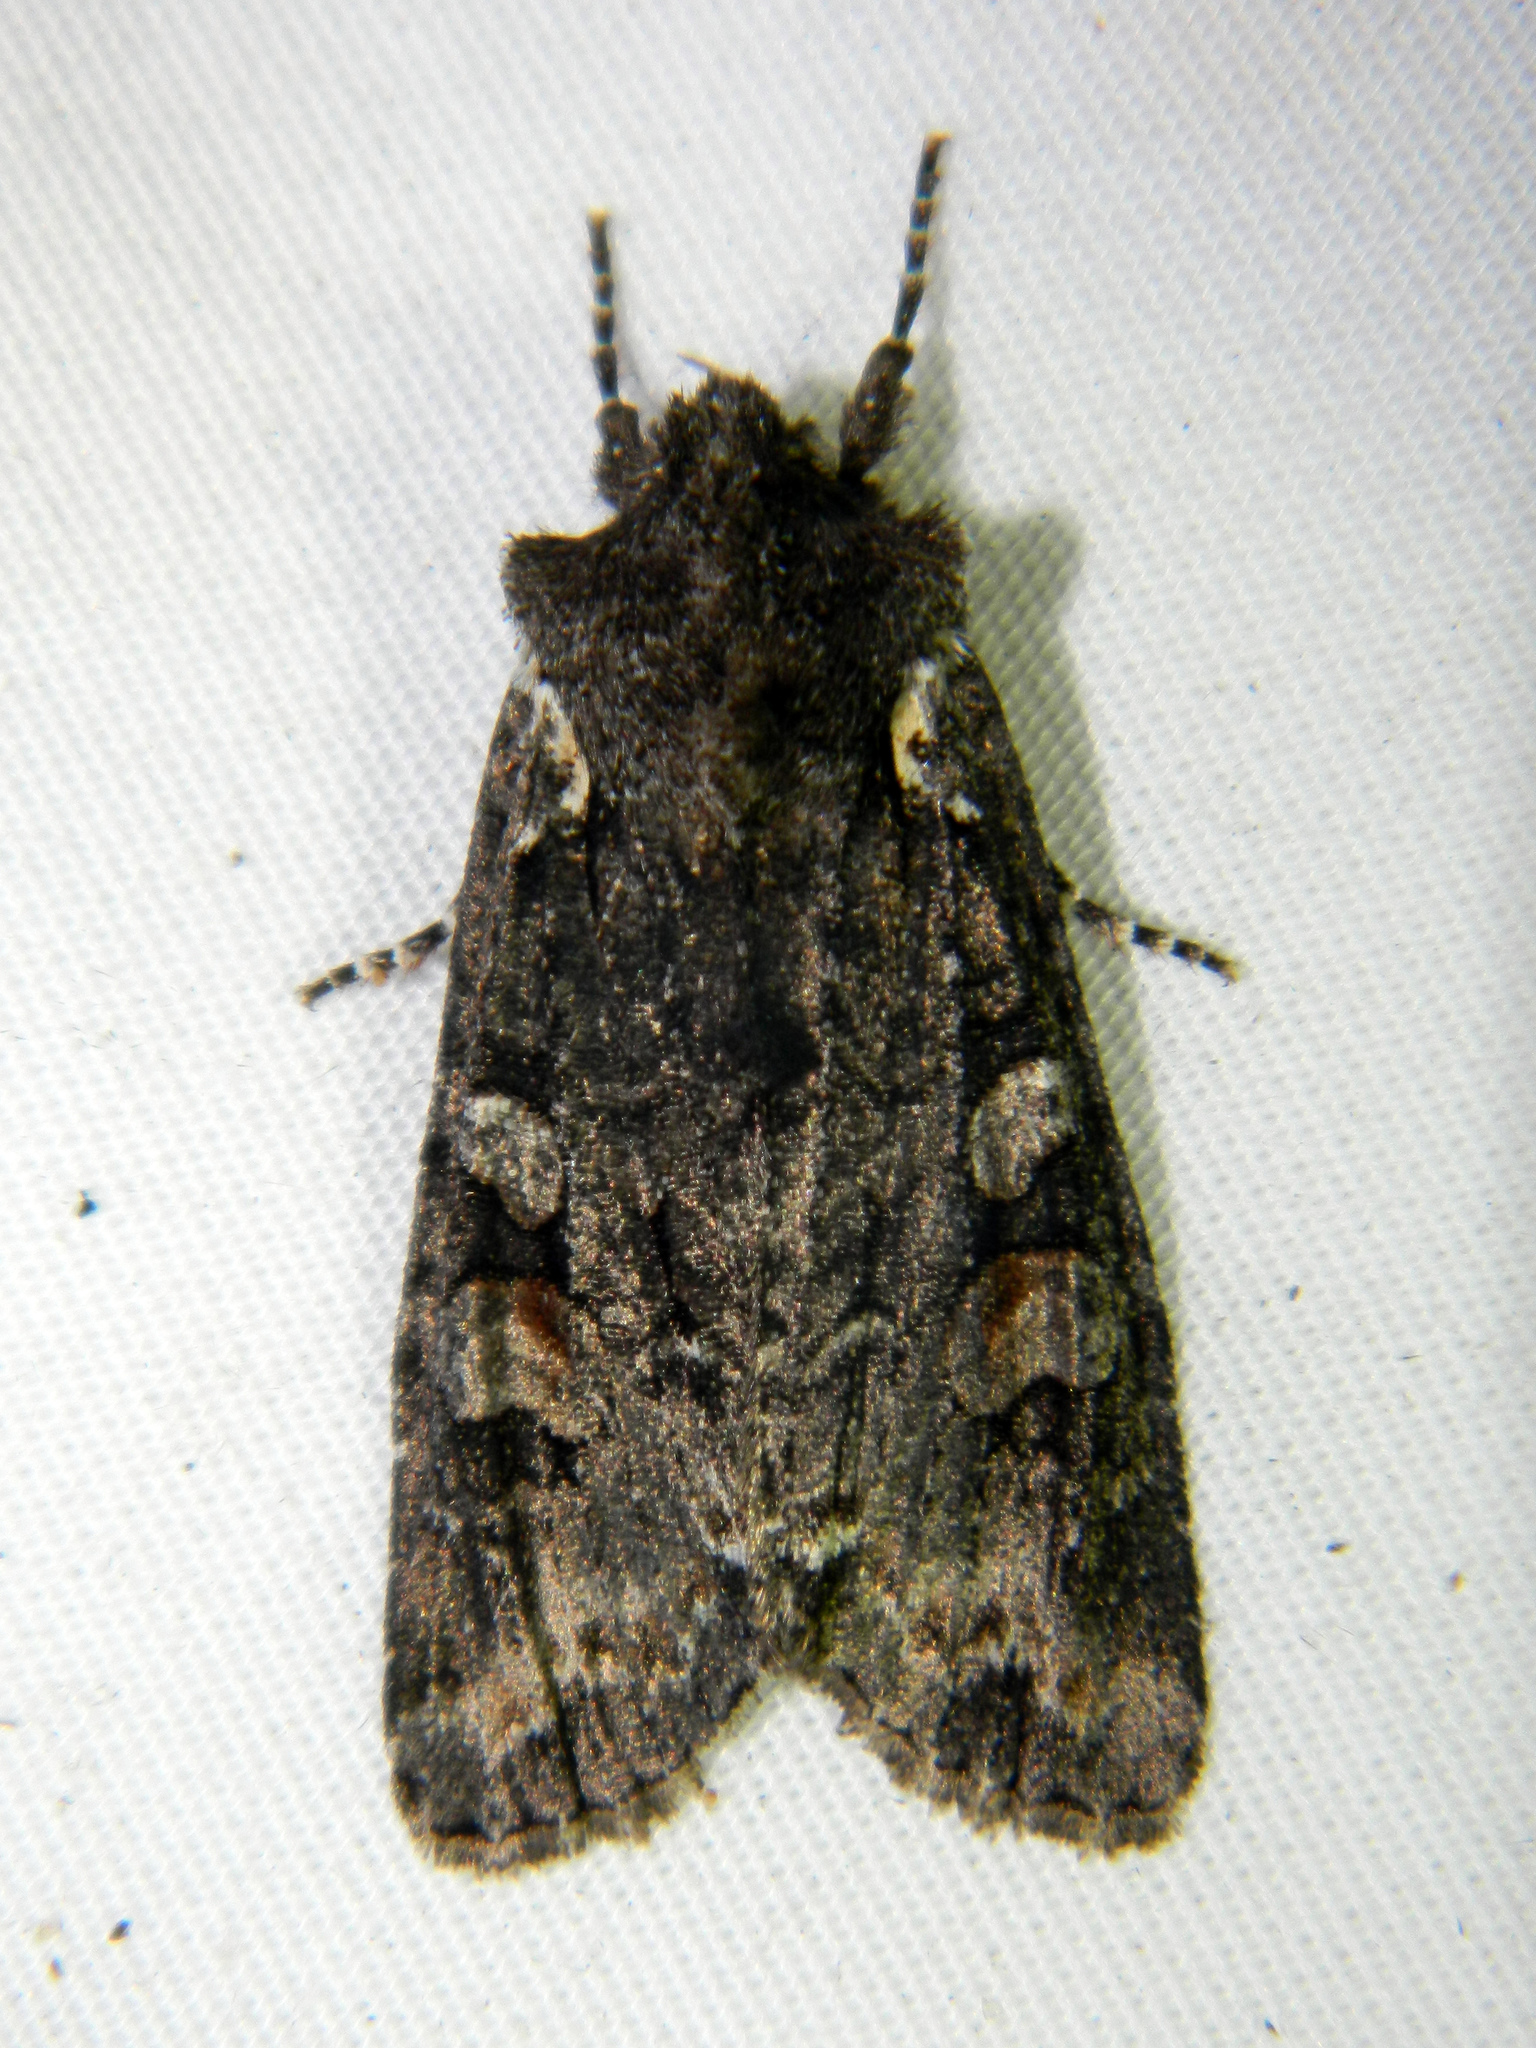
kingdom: Animalia
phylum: Arthropoda
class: Insecta
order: Lepidoptera
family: Noctuidae
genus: Lithophane
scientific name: Lithophane pexata
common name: Plush-naped pinion moth
